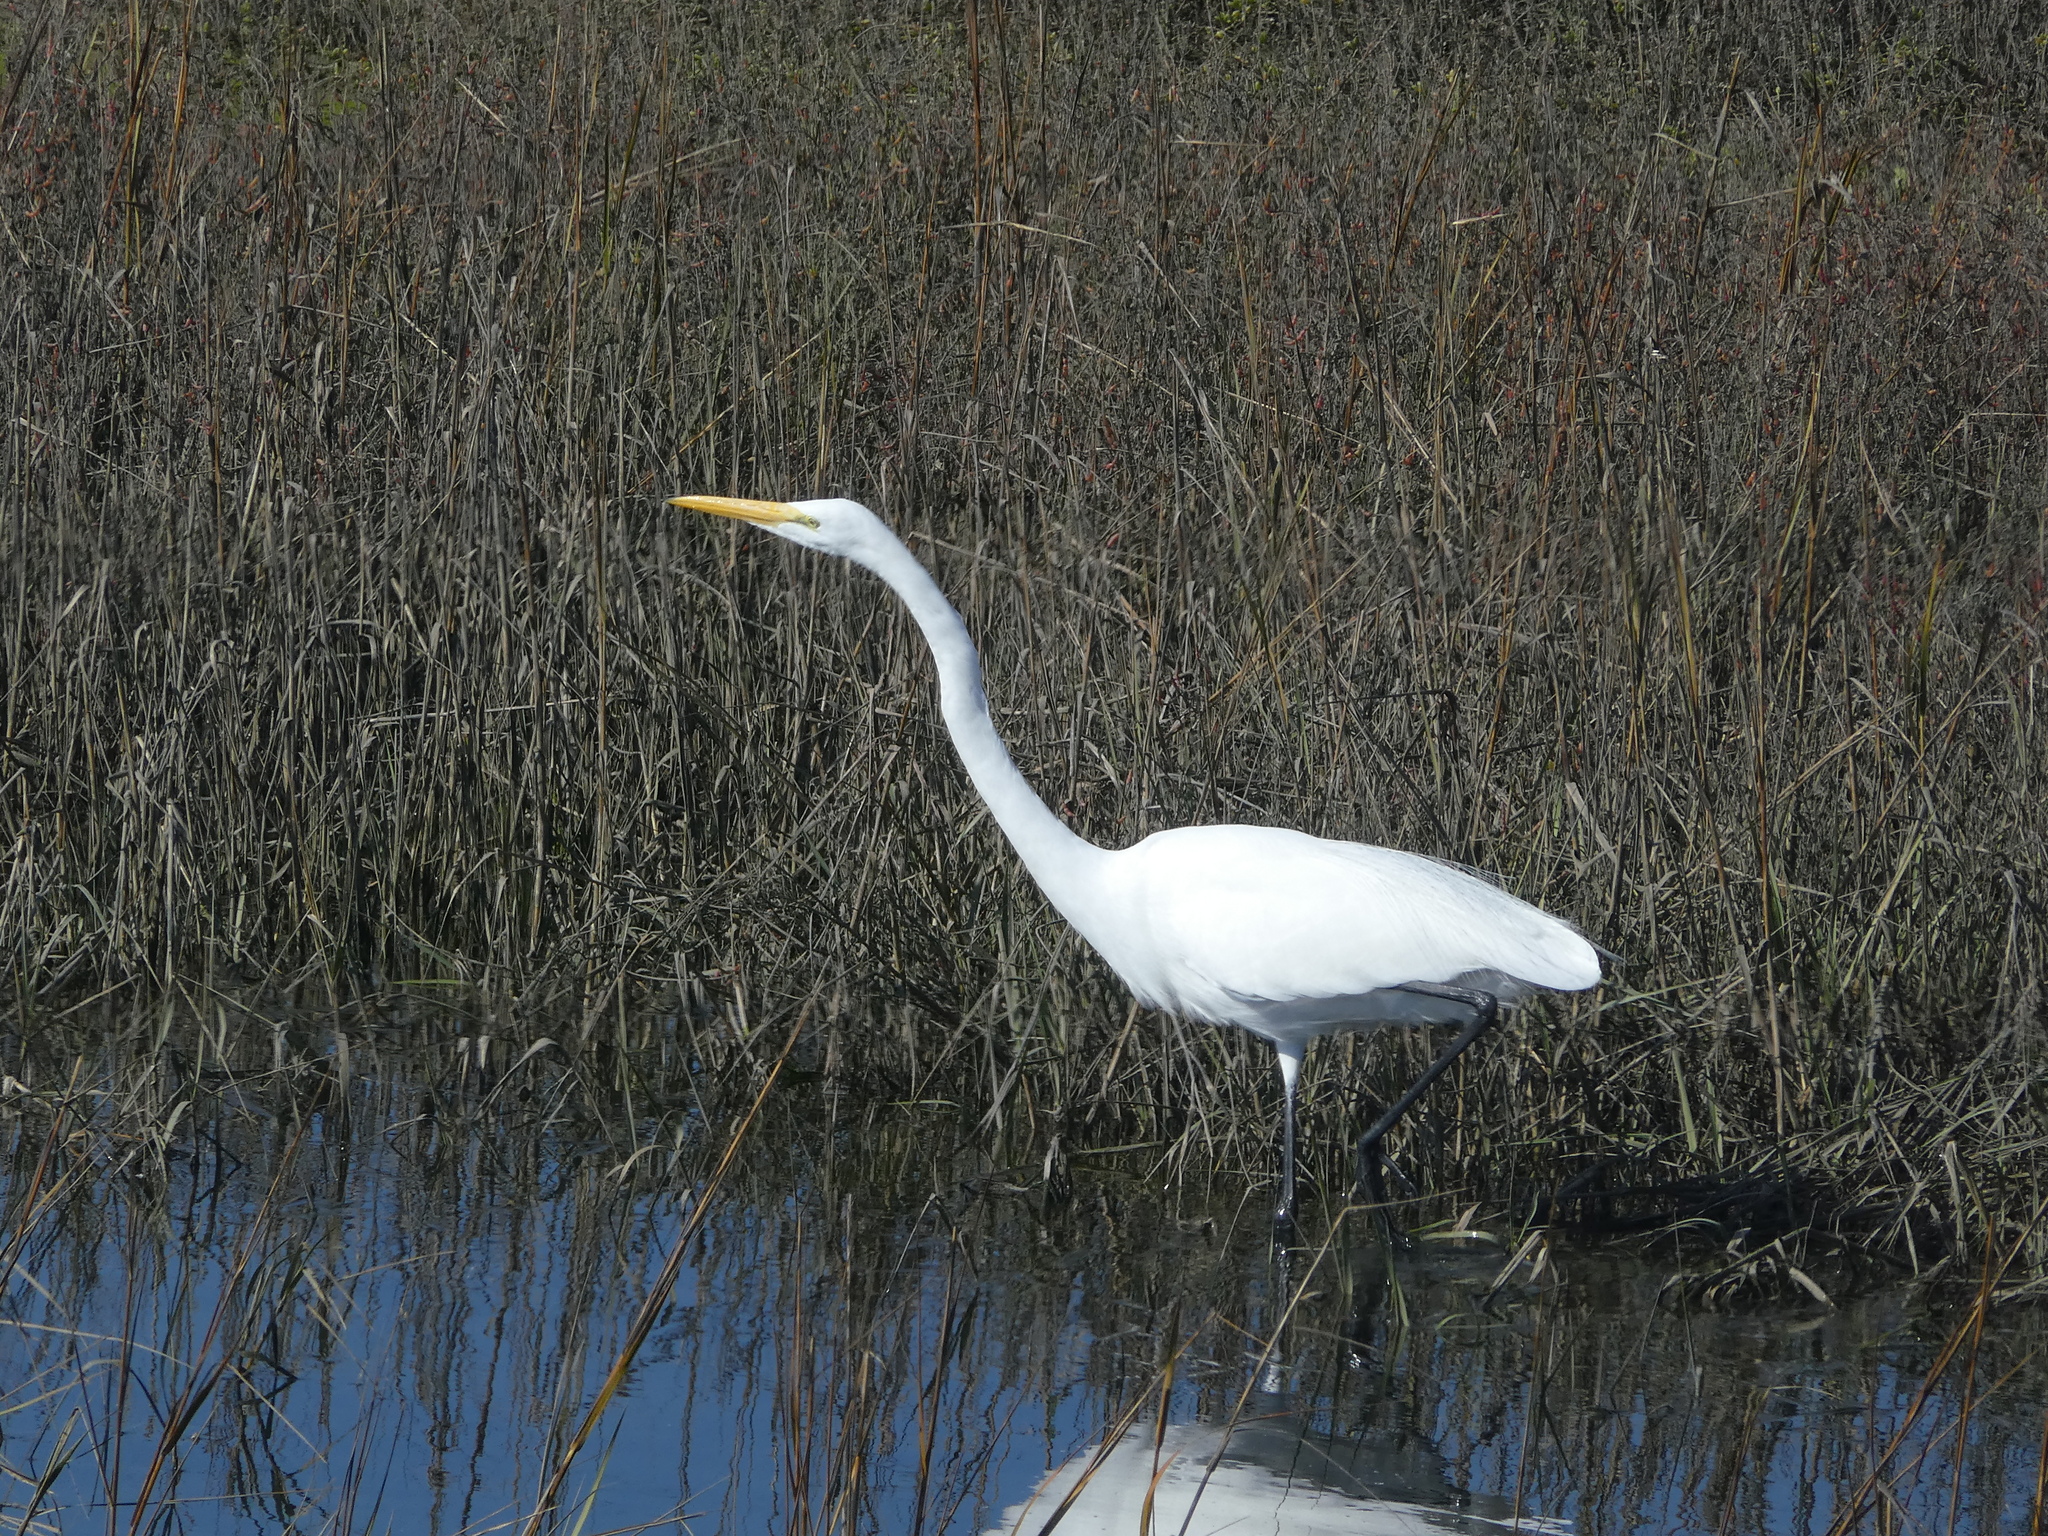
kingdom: Animalia
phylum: Chordata
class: Aves
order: Pelecaniformes
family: Ardeidae
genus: Ardea
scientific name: Ardea alba
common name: Great egret
